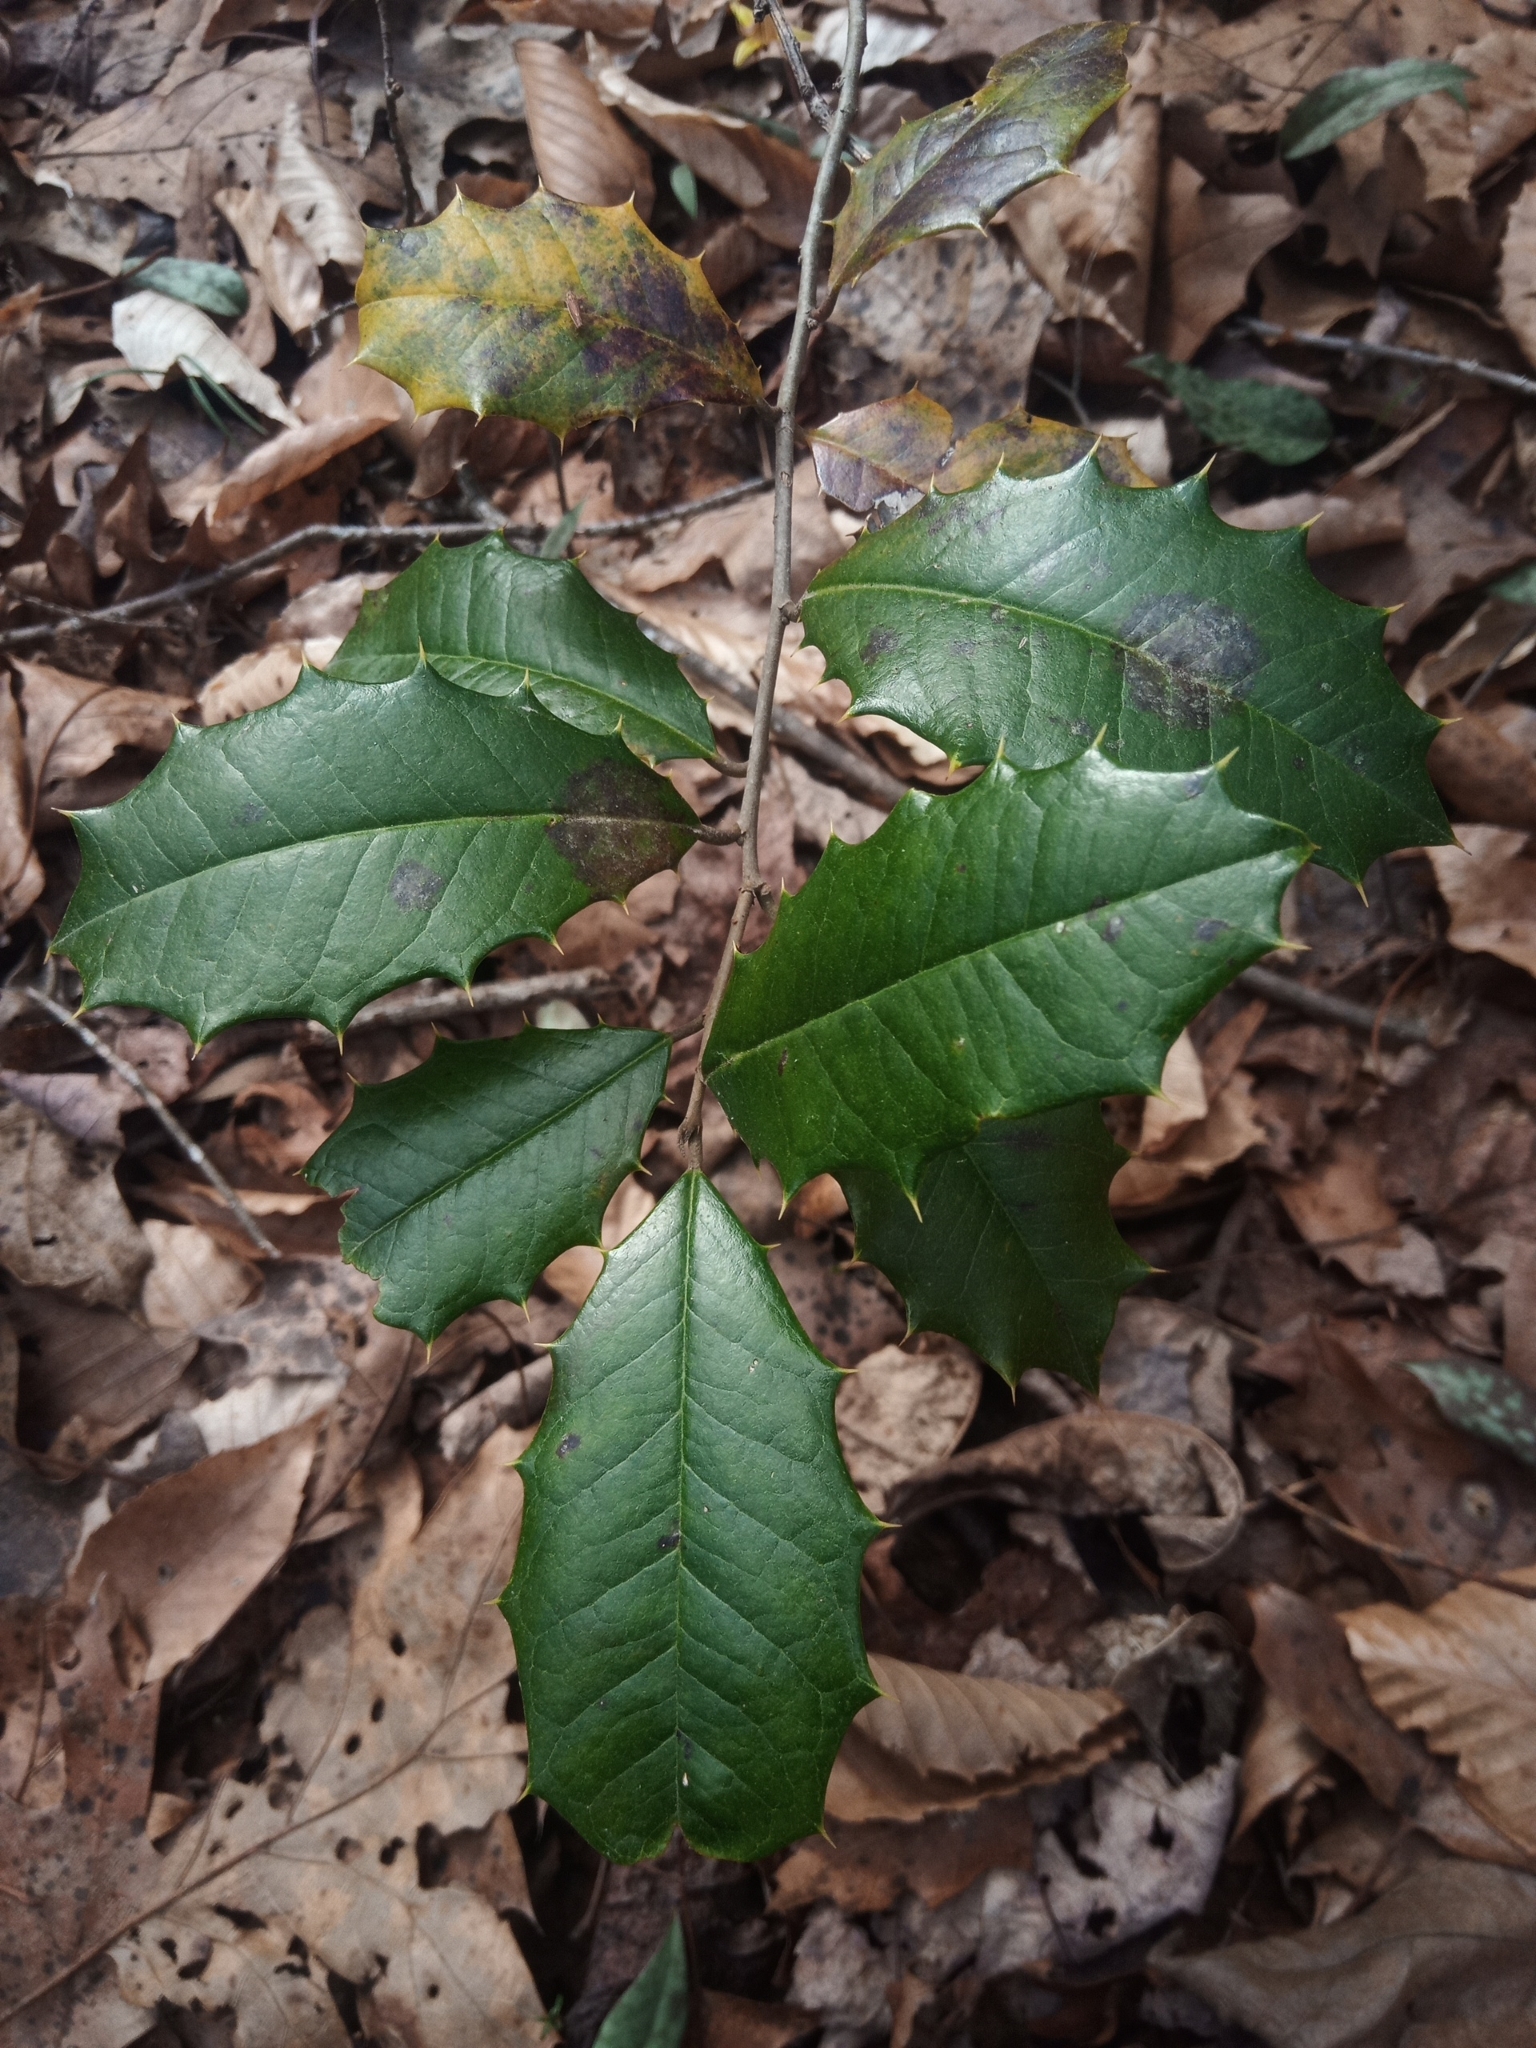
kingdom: Plantae
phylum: Tracheophyta
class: Magnoliopsida
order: Aquifoliales
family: Aquifoliaceae
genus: Ilex
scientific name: Ilex opaca
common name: American holly
